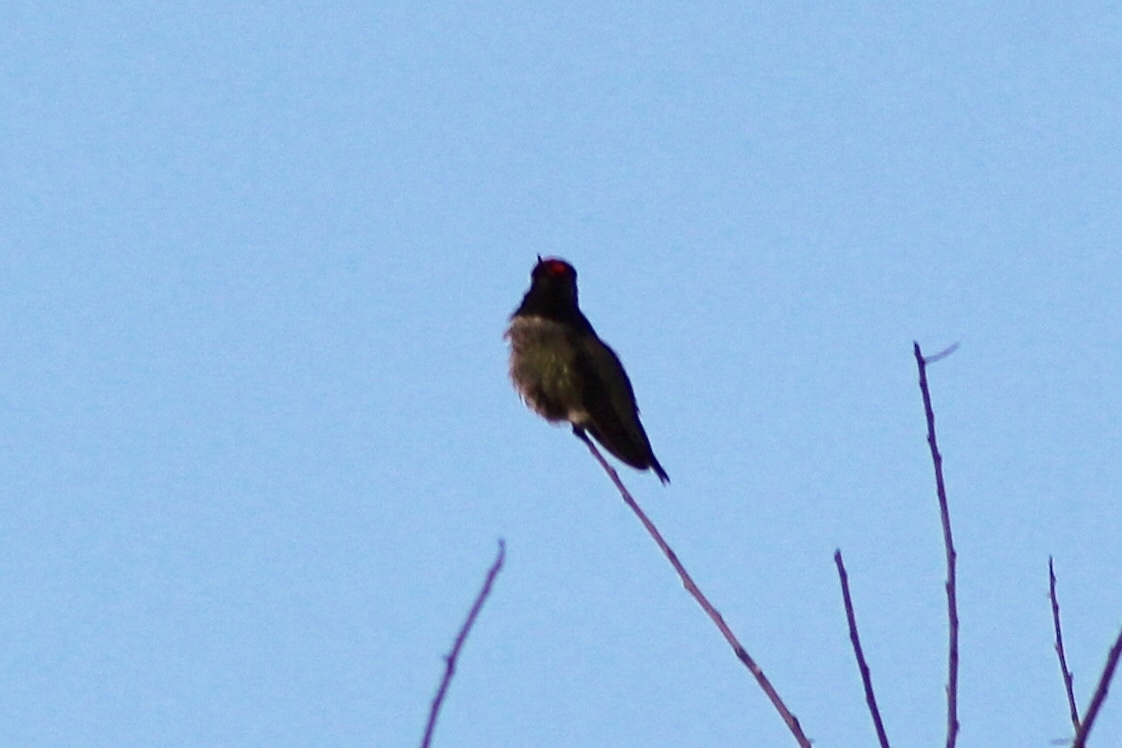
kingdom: Animalia
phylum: Chordata
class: Aves
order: Apodiformes
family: Trochilidae
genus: Calypte
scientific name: Calypte anna
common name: Anna's hummingbird
